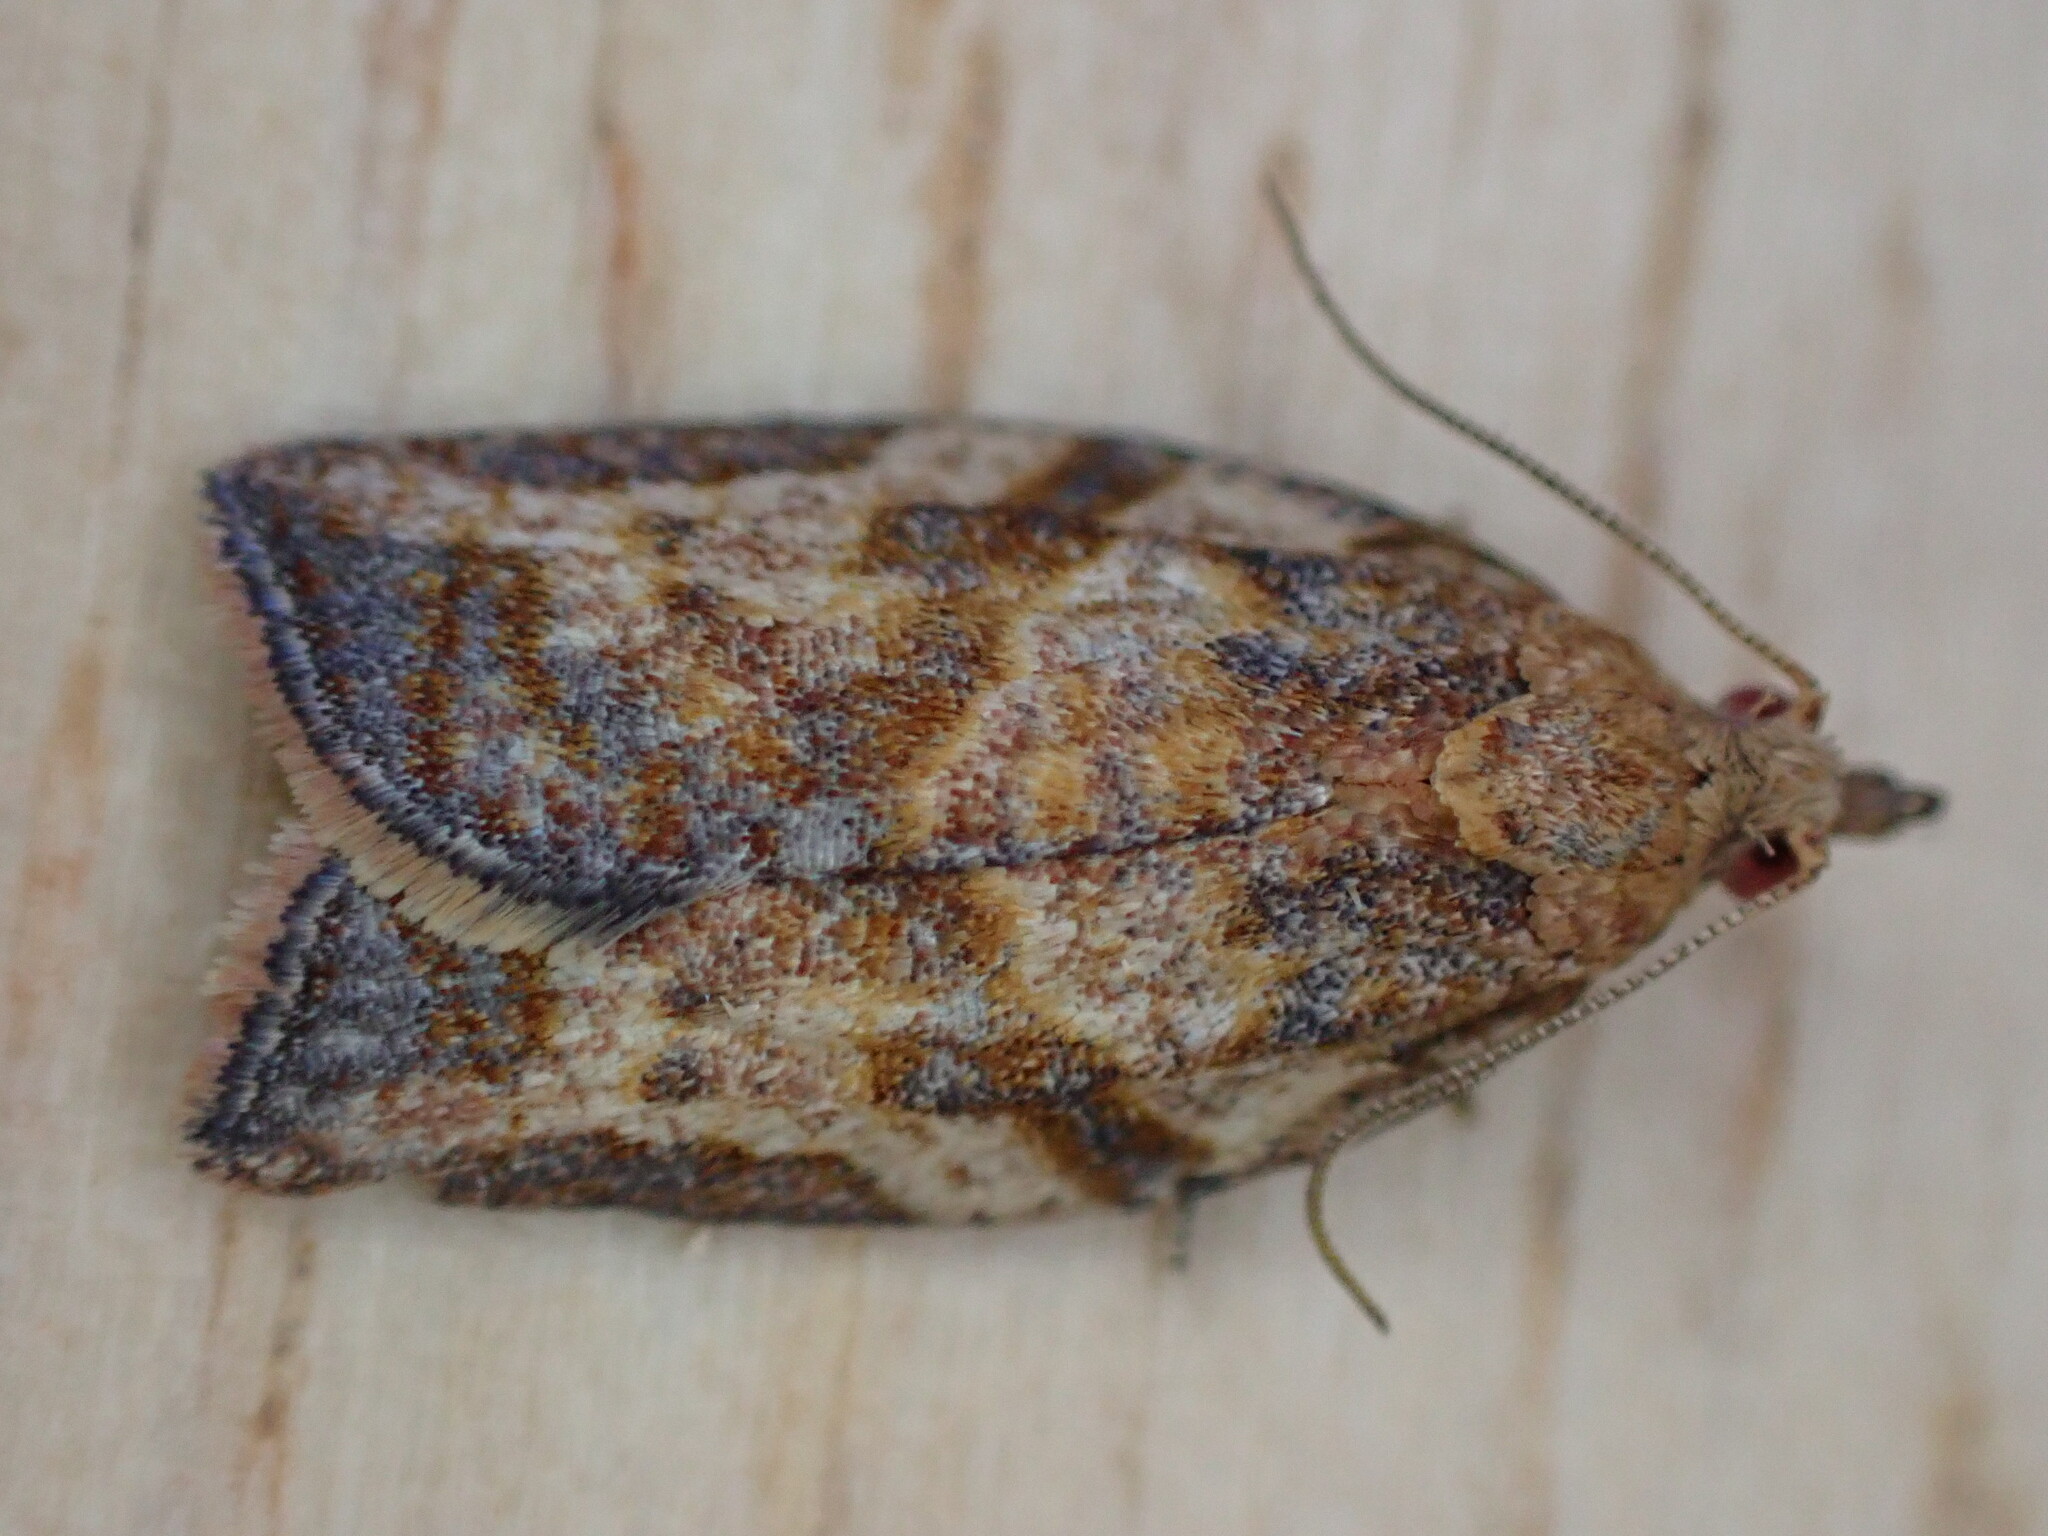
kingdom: Animalia
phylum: Arthropoda
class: Insecta
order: Lepidoptera
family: Tortricidae
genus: Epiphyas
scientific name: Epiphyas postvittana
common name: Light brown apple moth
